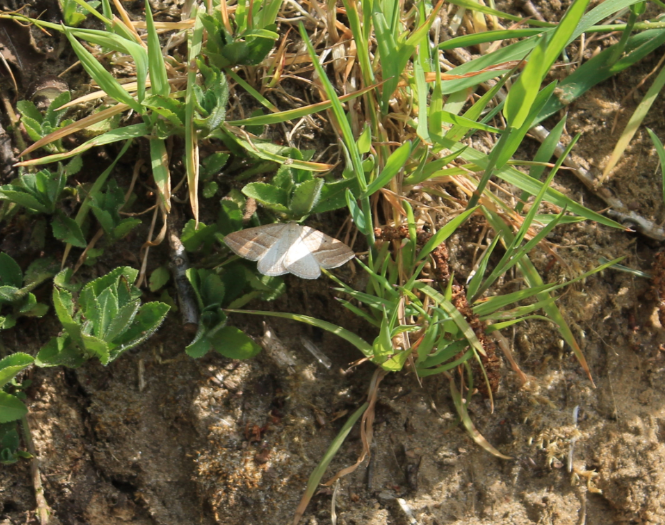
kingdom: Animalia
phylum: Arthropoda
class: Insecta
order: Lepidoptera
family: Pterophoridae
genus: Pterophorus
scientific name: Pterophorus Petrophora chlorosata
